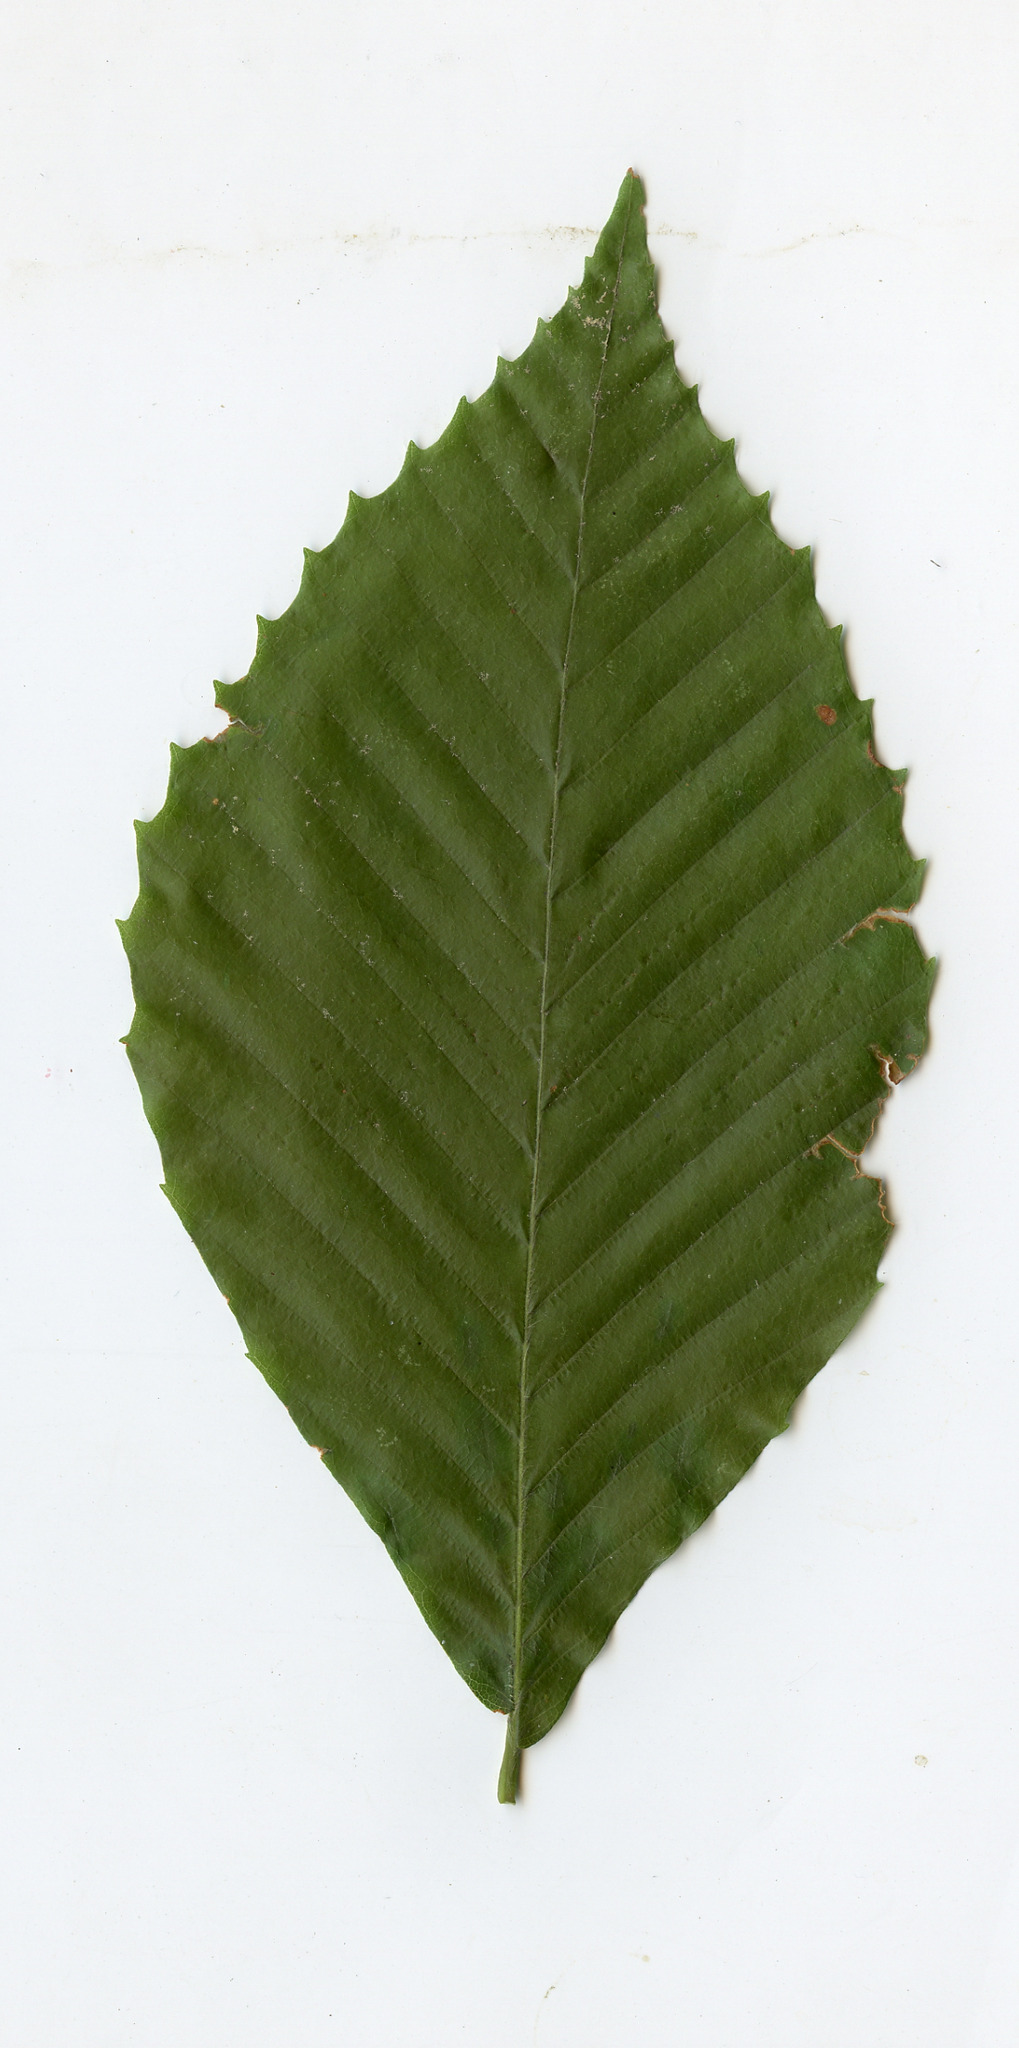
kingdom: Plantae
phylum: Tracheophyta
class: Magnoliopsida
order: Fagales
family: Fagaceae
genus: Fagus
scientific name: Fagus grandifolia
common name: American beech
